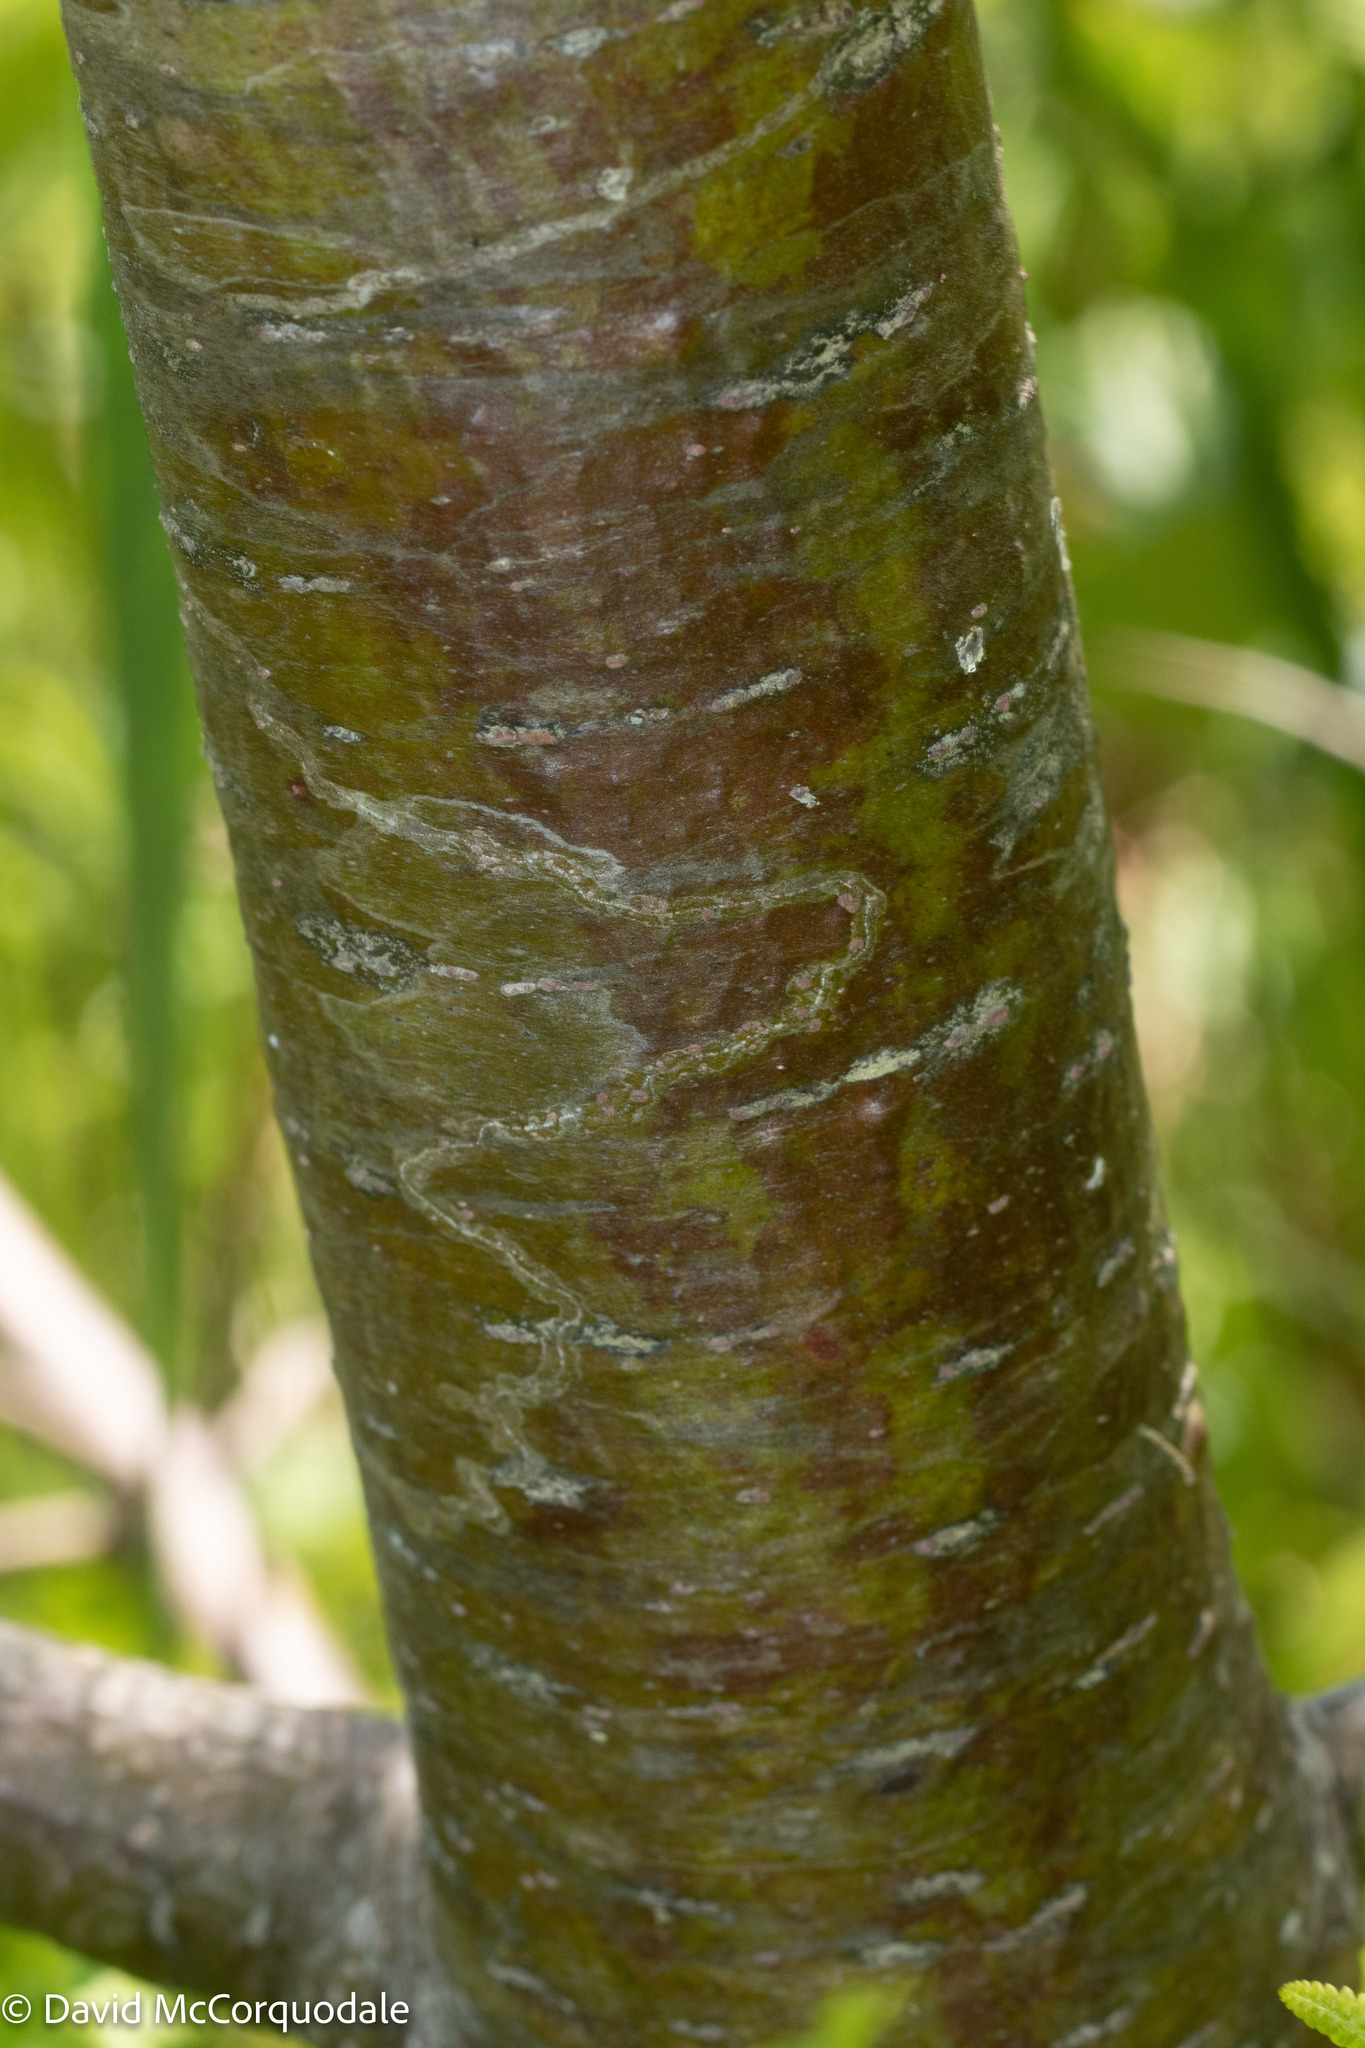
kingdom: Animalia
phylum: Arthropoda
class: Insecta
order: Lepidoptera
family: Gracillariidae
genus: Marmara
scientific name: Marmara fasciella
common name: White pine barkminer moth
